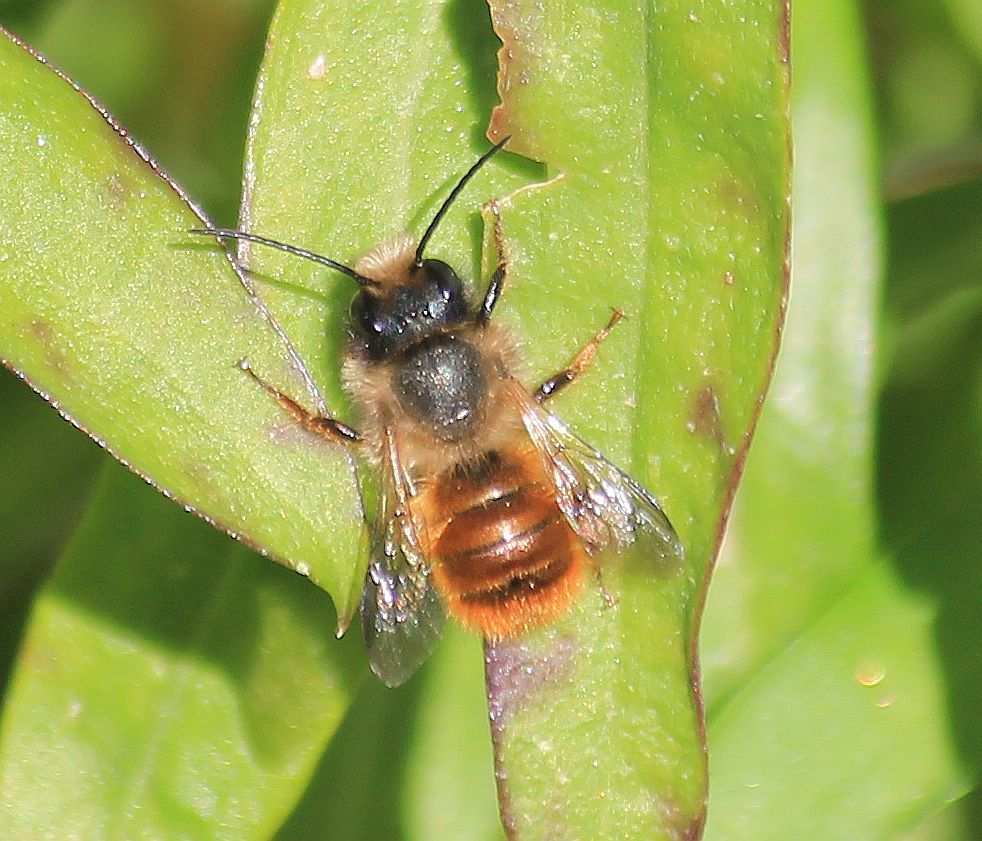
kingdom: Animalia
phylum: Arthropoda
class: Insecta
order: Hymenoptera
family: Megachilidae
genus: Osmia
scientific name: Osmia bicornis
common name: Red mason bee
